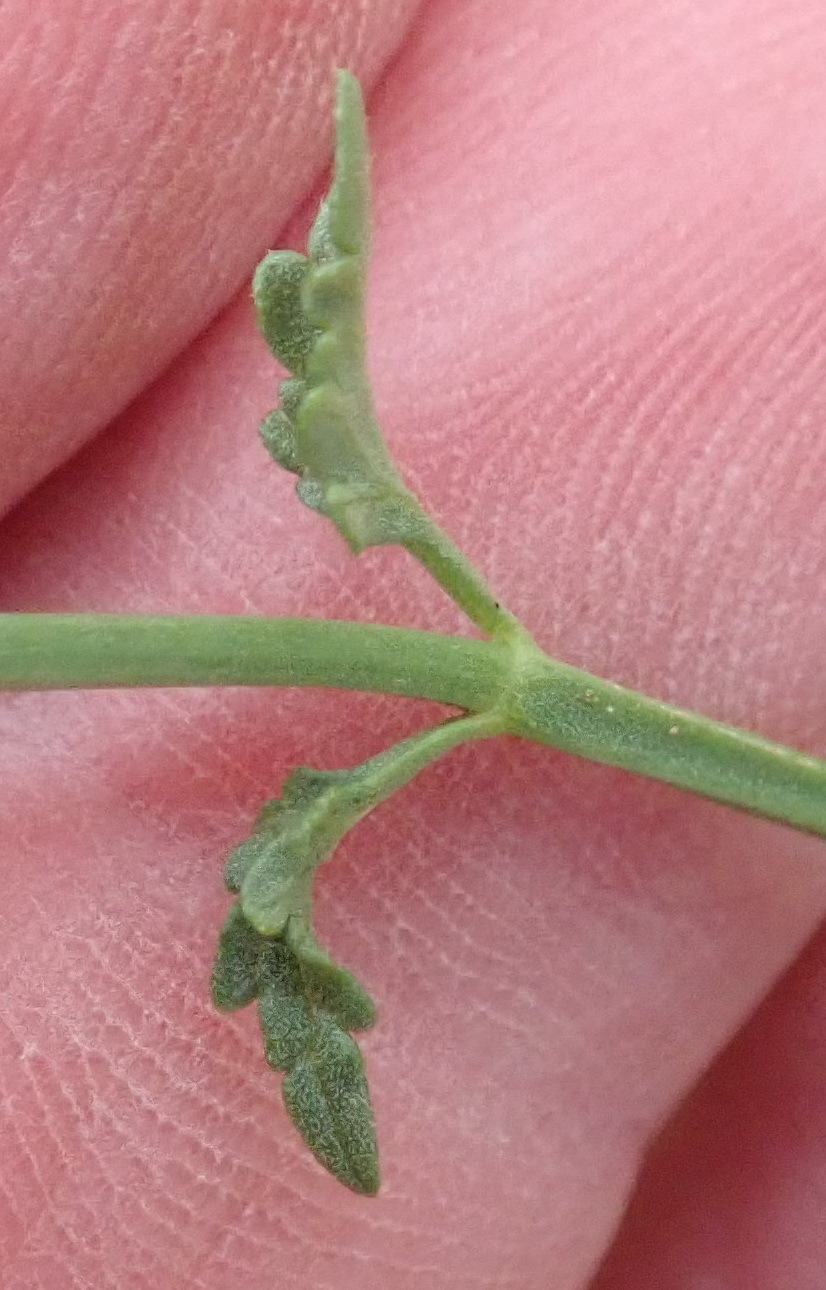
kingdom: Plantae
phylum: Tracheophyta
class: Magnoliopsida
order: Lamiales
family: Lamiaceae
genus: Stachys
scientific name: Stachys sublobata
